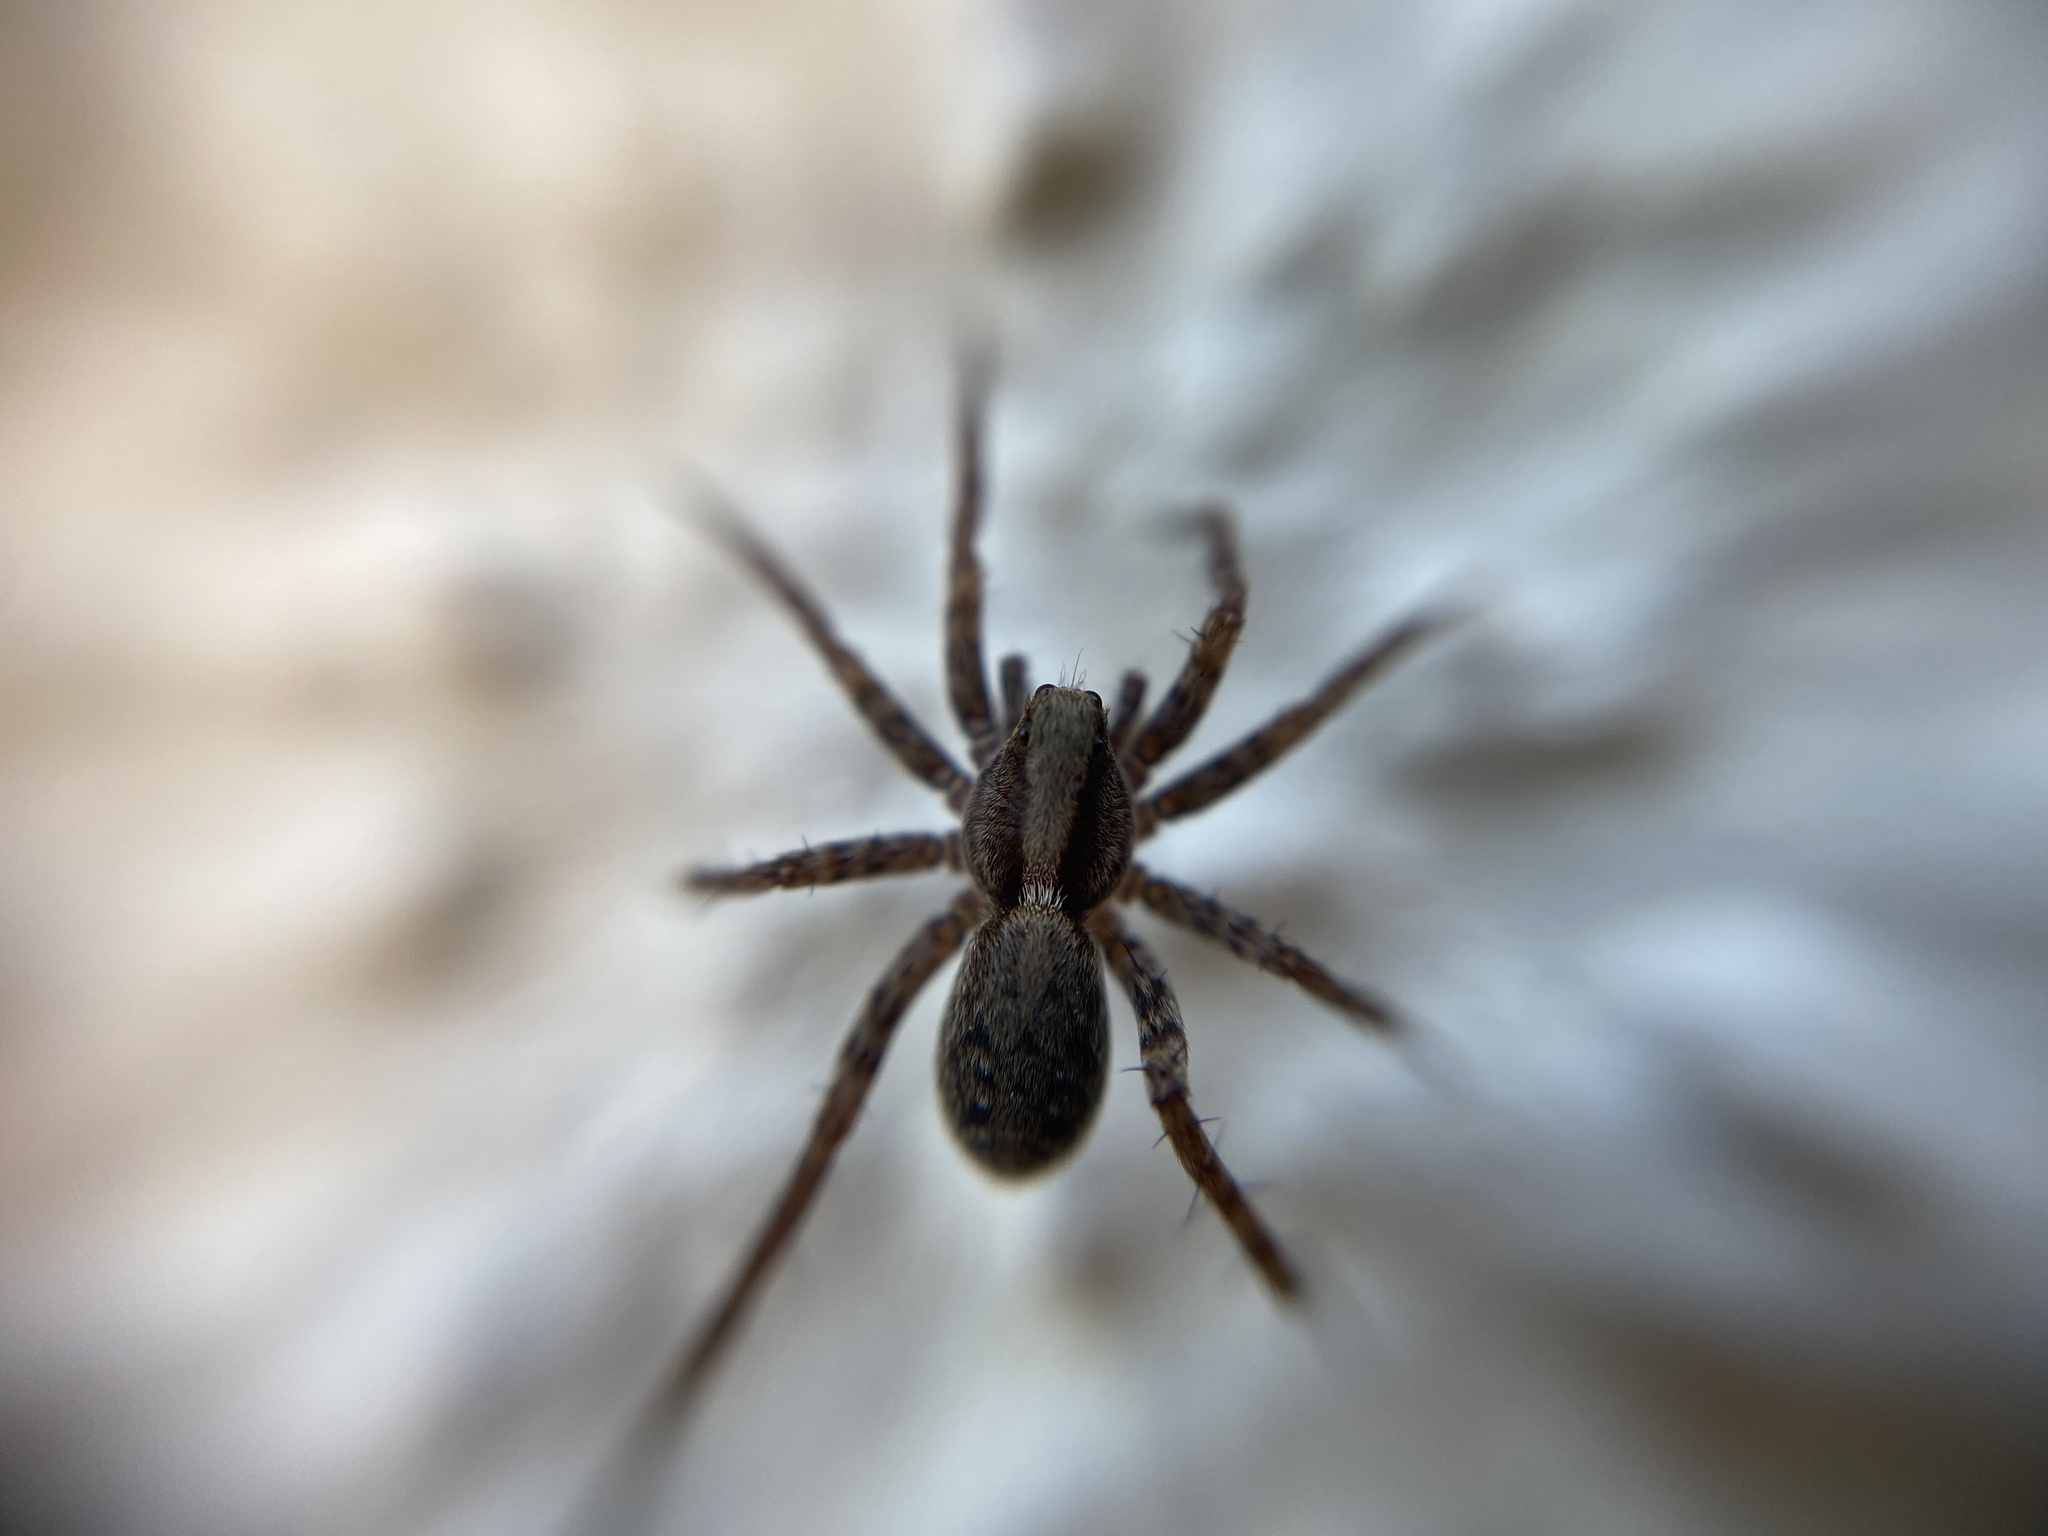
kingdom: Animalia
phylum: Arthropoda
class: Arachnida
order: Araneae
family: Lycosidae
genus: Pardosa
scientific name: Pardosa
